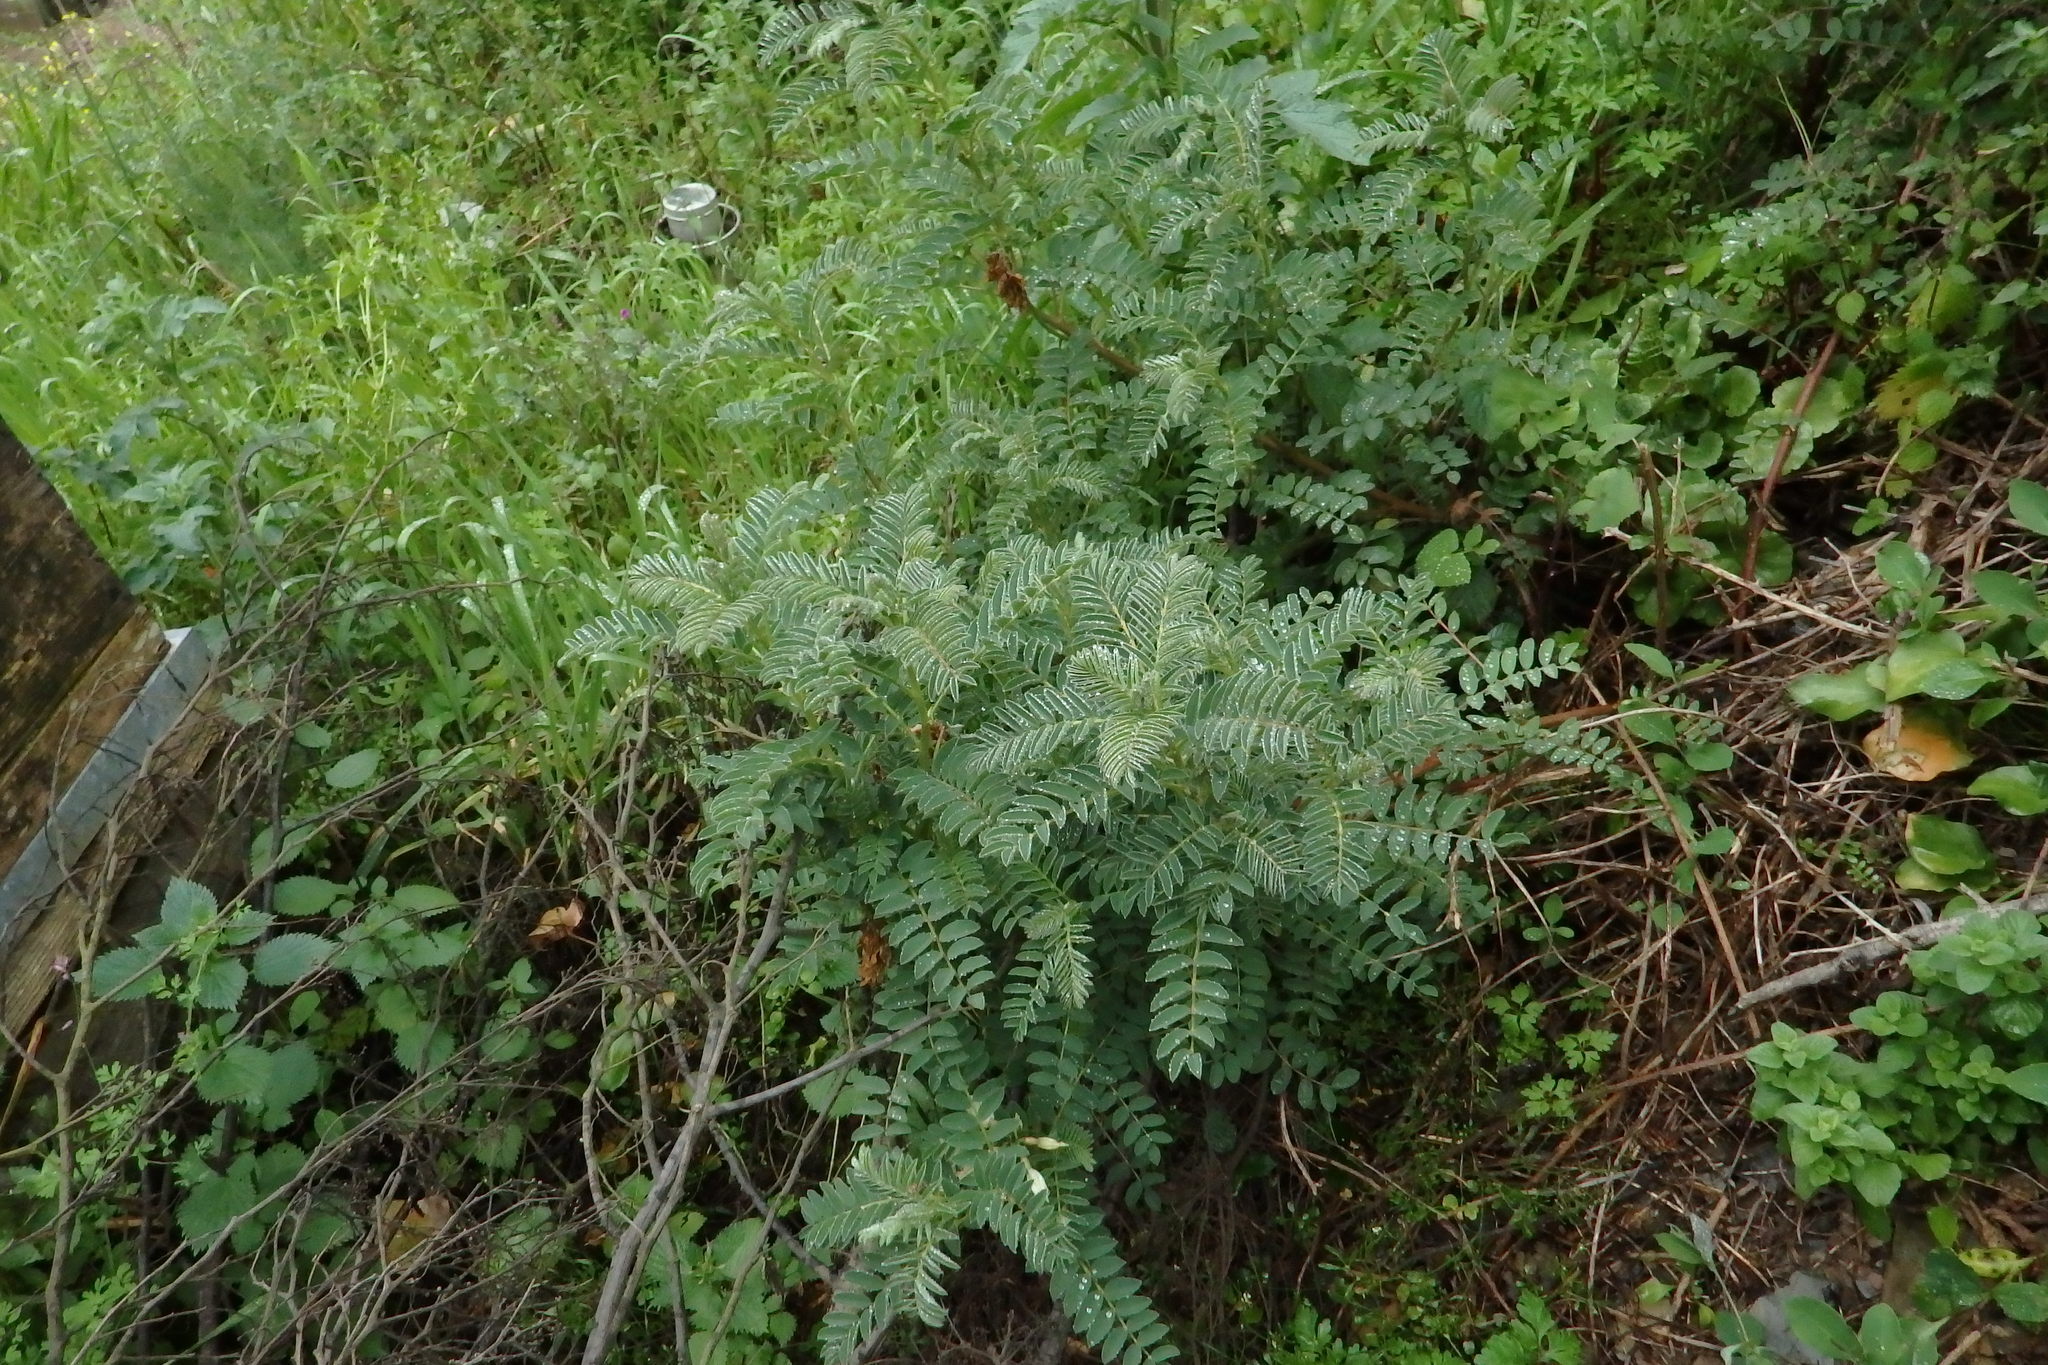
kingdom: Plantae
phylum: Tracheophyta
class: Magnoliopsida
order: Fabales
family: Fabaceae
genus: Erophaca
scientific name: Erophaca baetica
